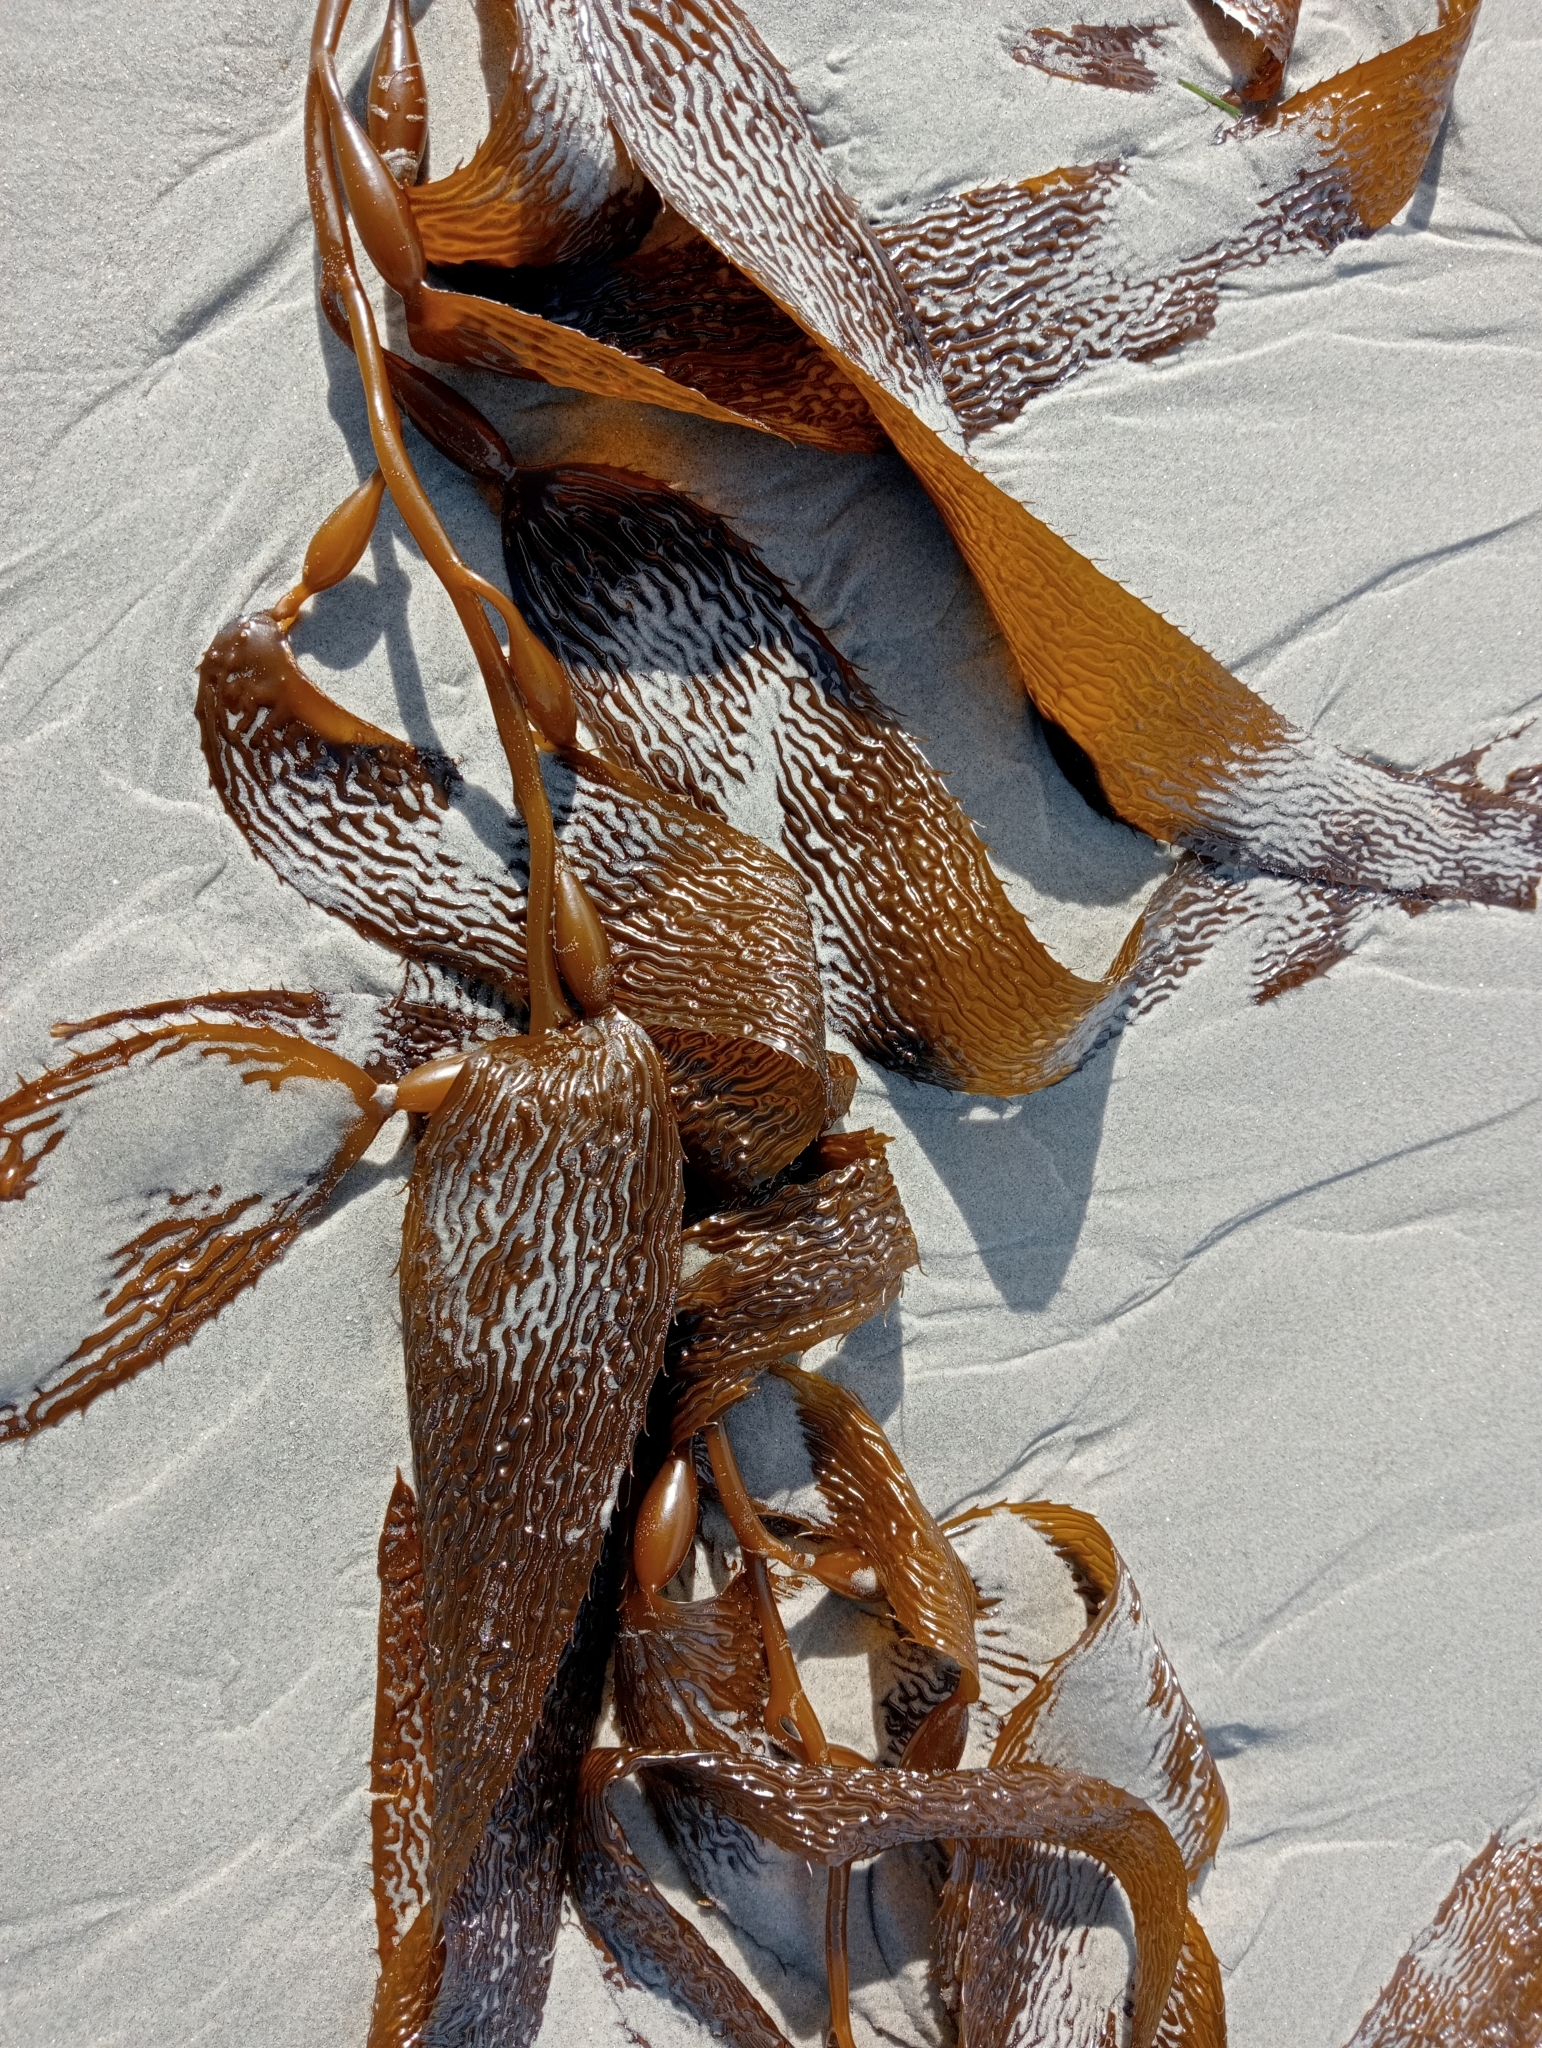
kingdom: Chromista
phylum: Ochrophyta
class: Phaeophyceae
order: Laminariales
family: Laminariaceae
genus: Macrocystis
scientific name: Macrocystis pyrifera
